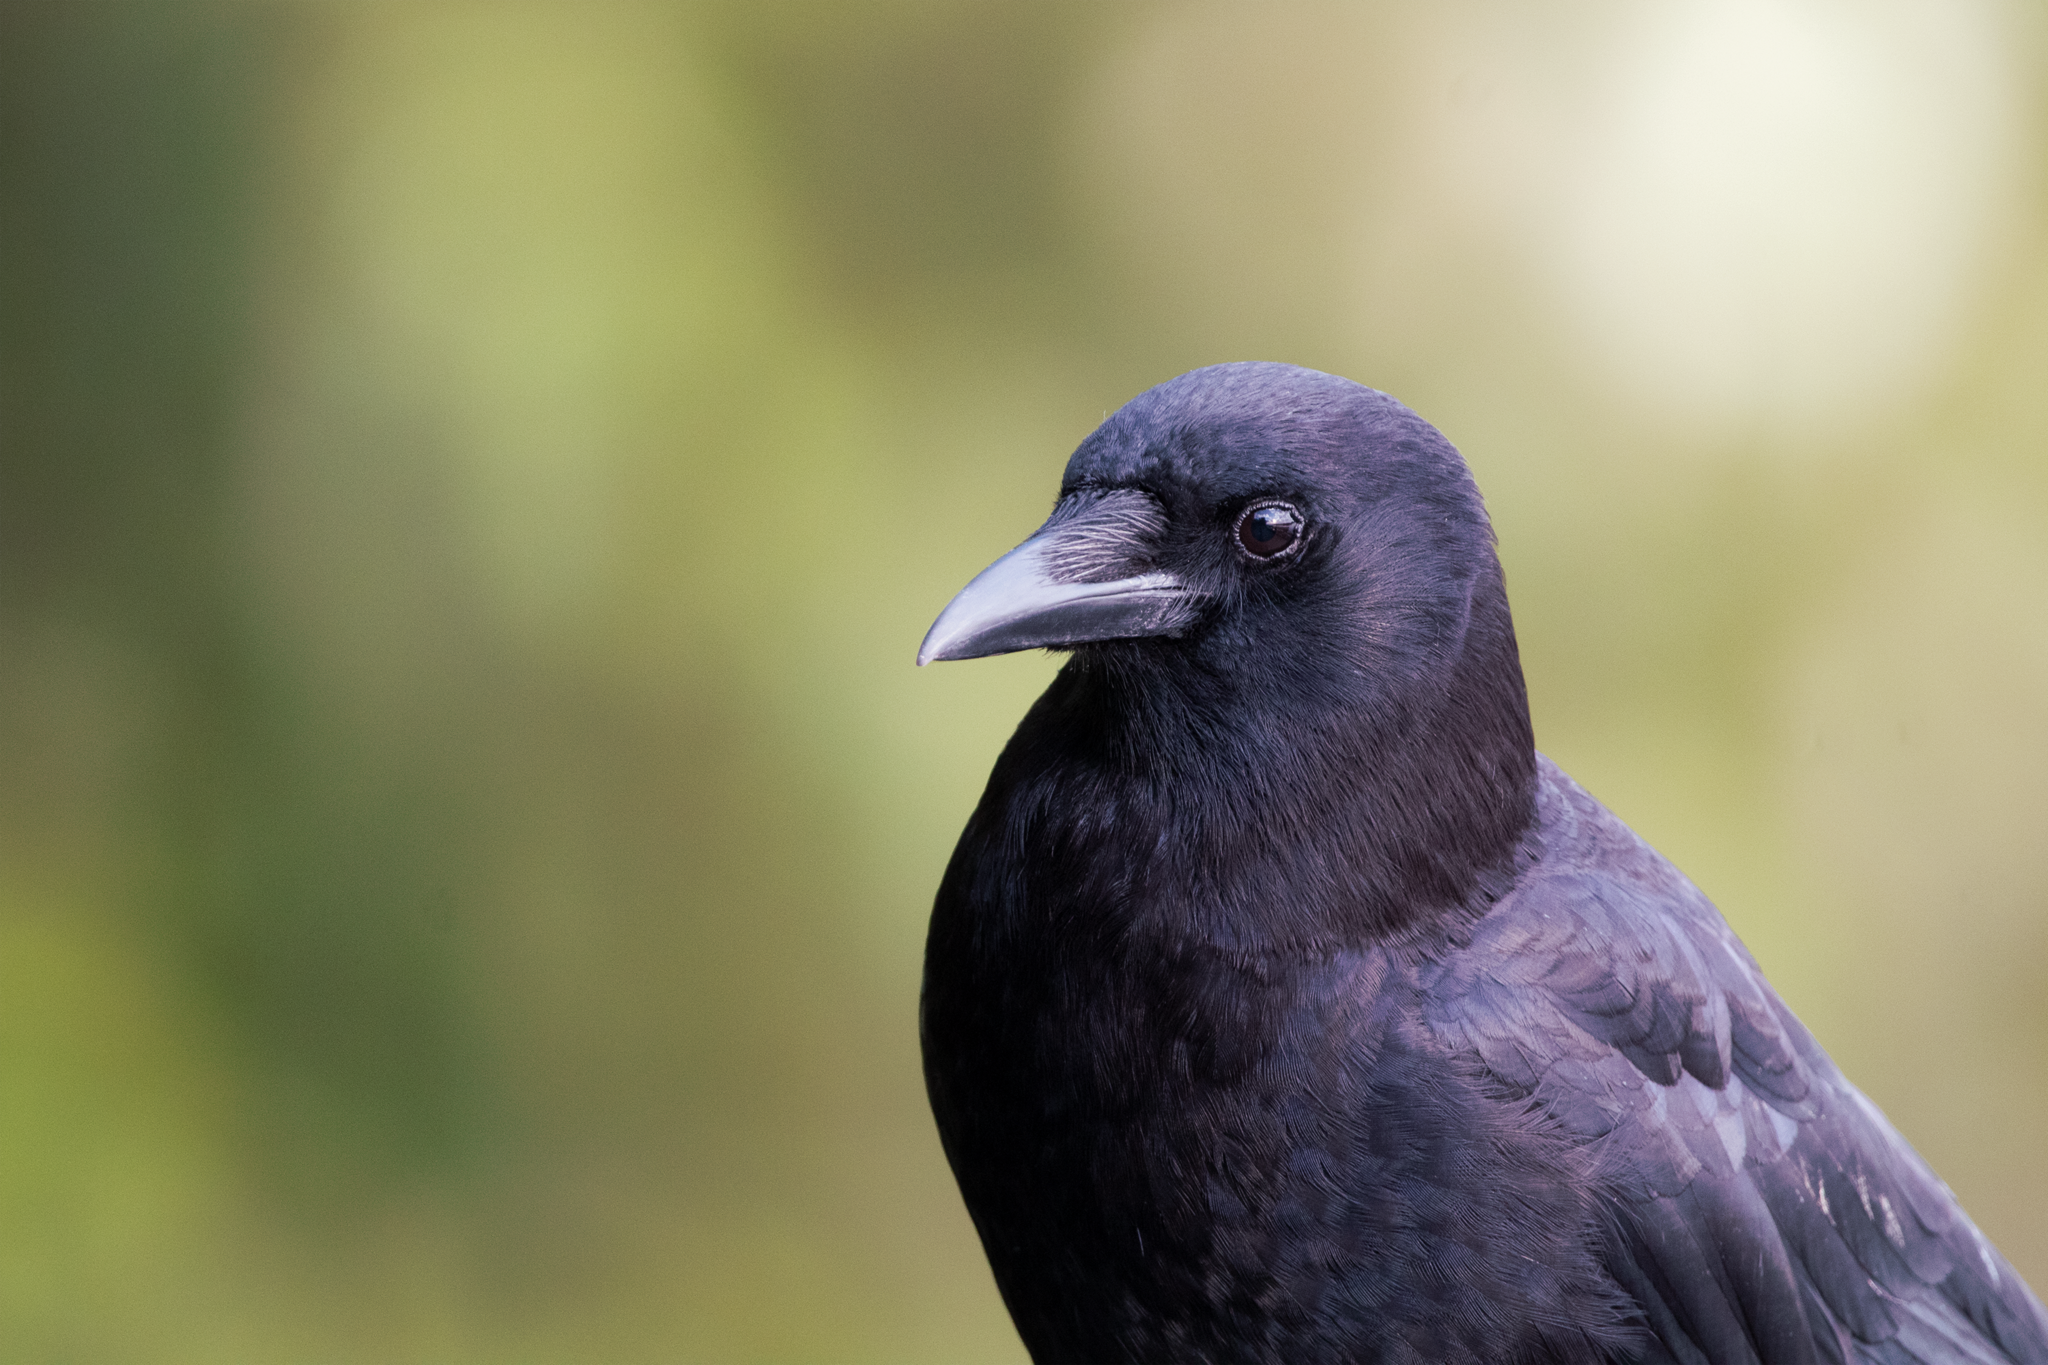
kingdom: Animalia
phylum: Chordata
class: Aves
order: Passeriformes
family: Corvidae
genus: Corvus
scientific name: Corvus brachyrhynchos
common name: American crow
